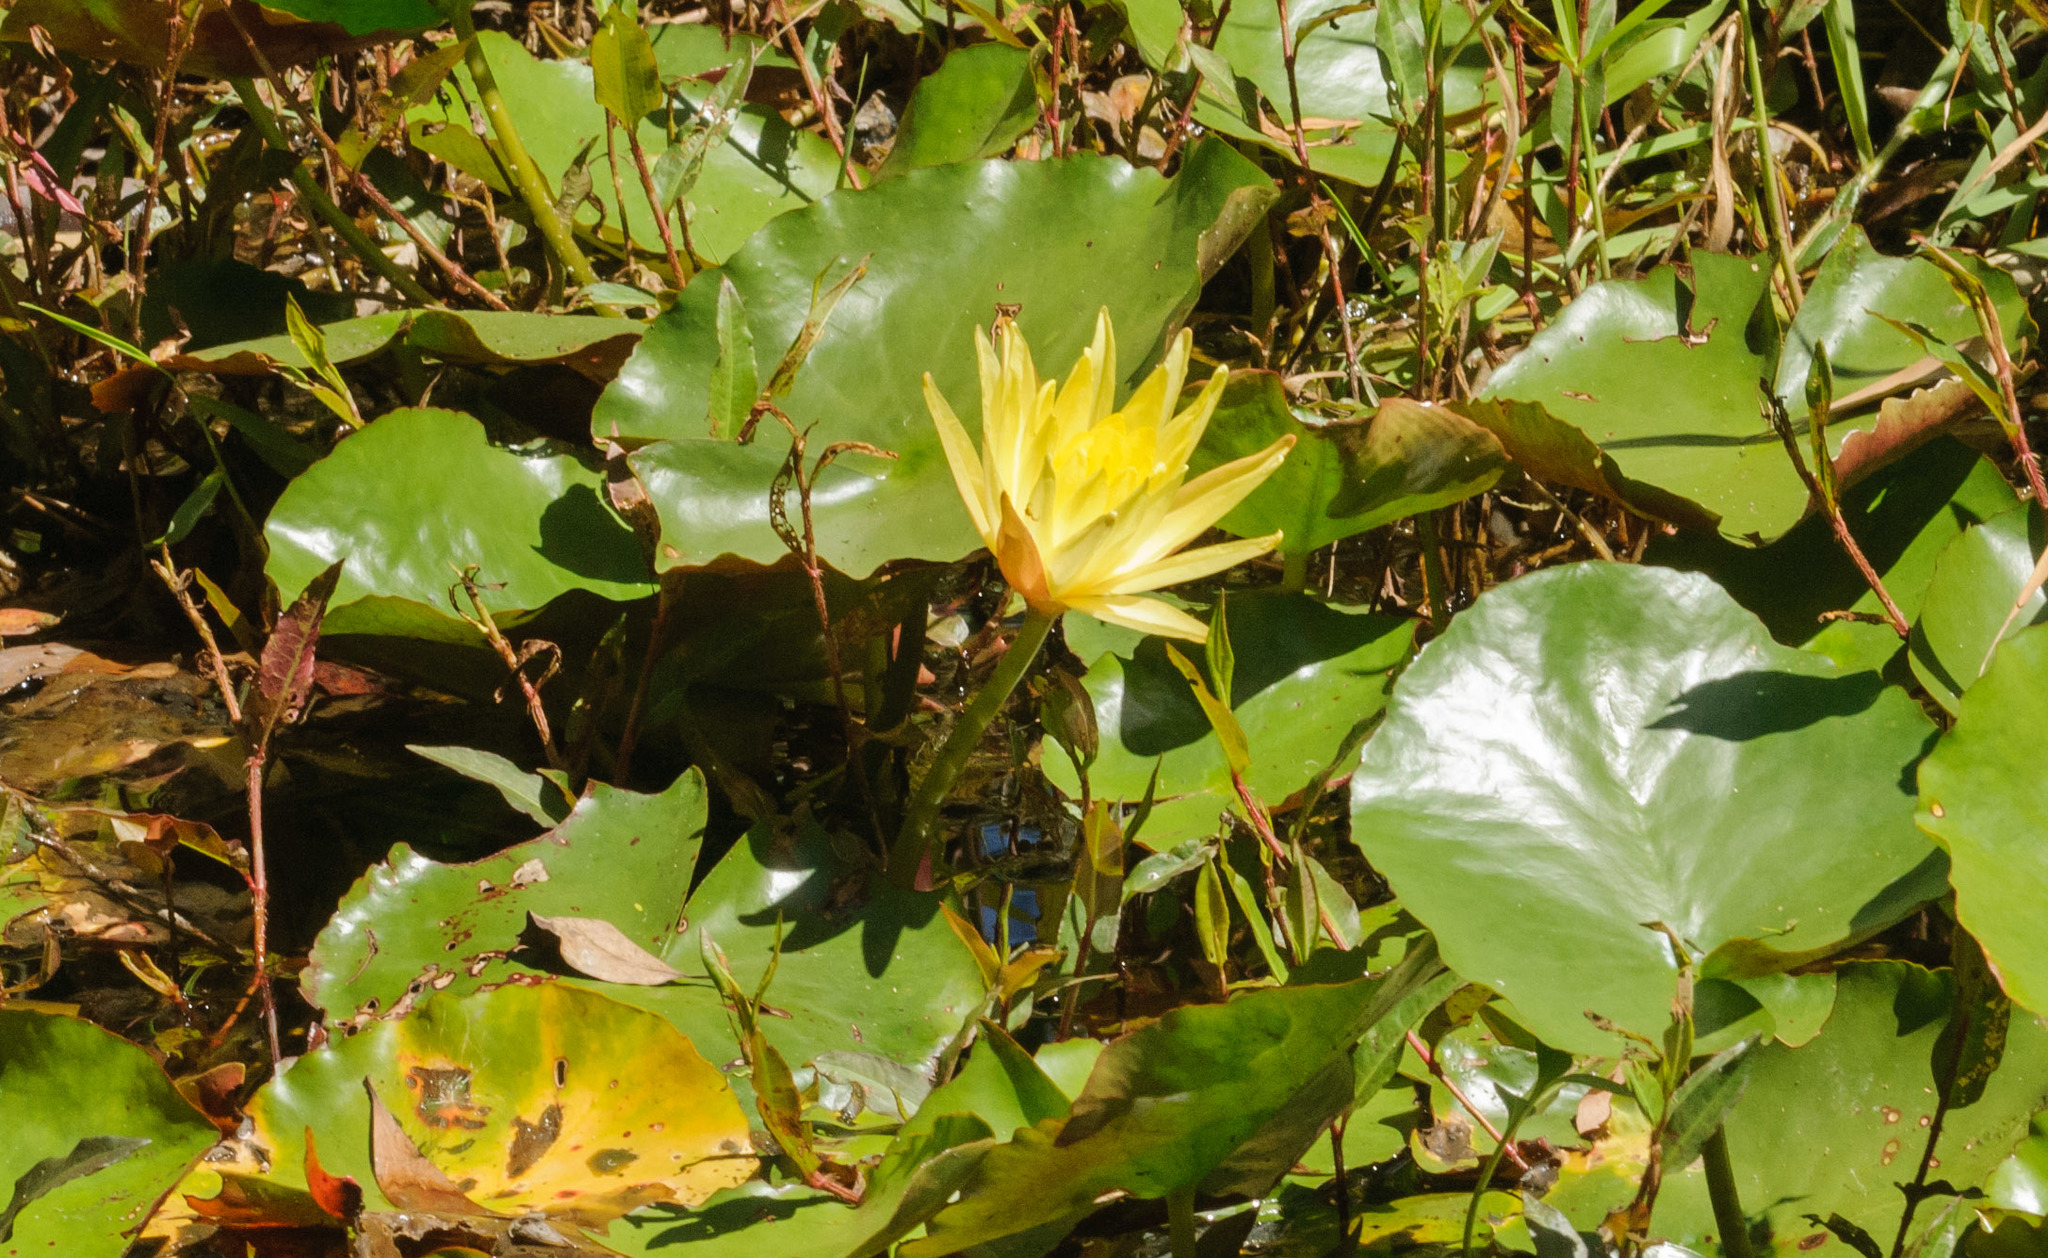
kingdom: Plantae
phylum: Tracheophyta
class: Magnoliopsida
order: Nymphaeales
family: Nymphaeaceae
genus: Nymphaea
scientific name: Nymphaea mexicana
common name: Banana water-lily
